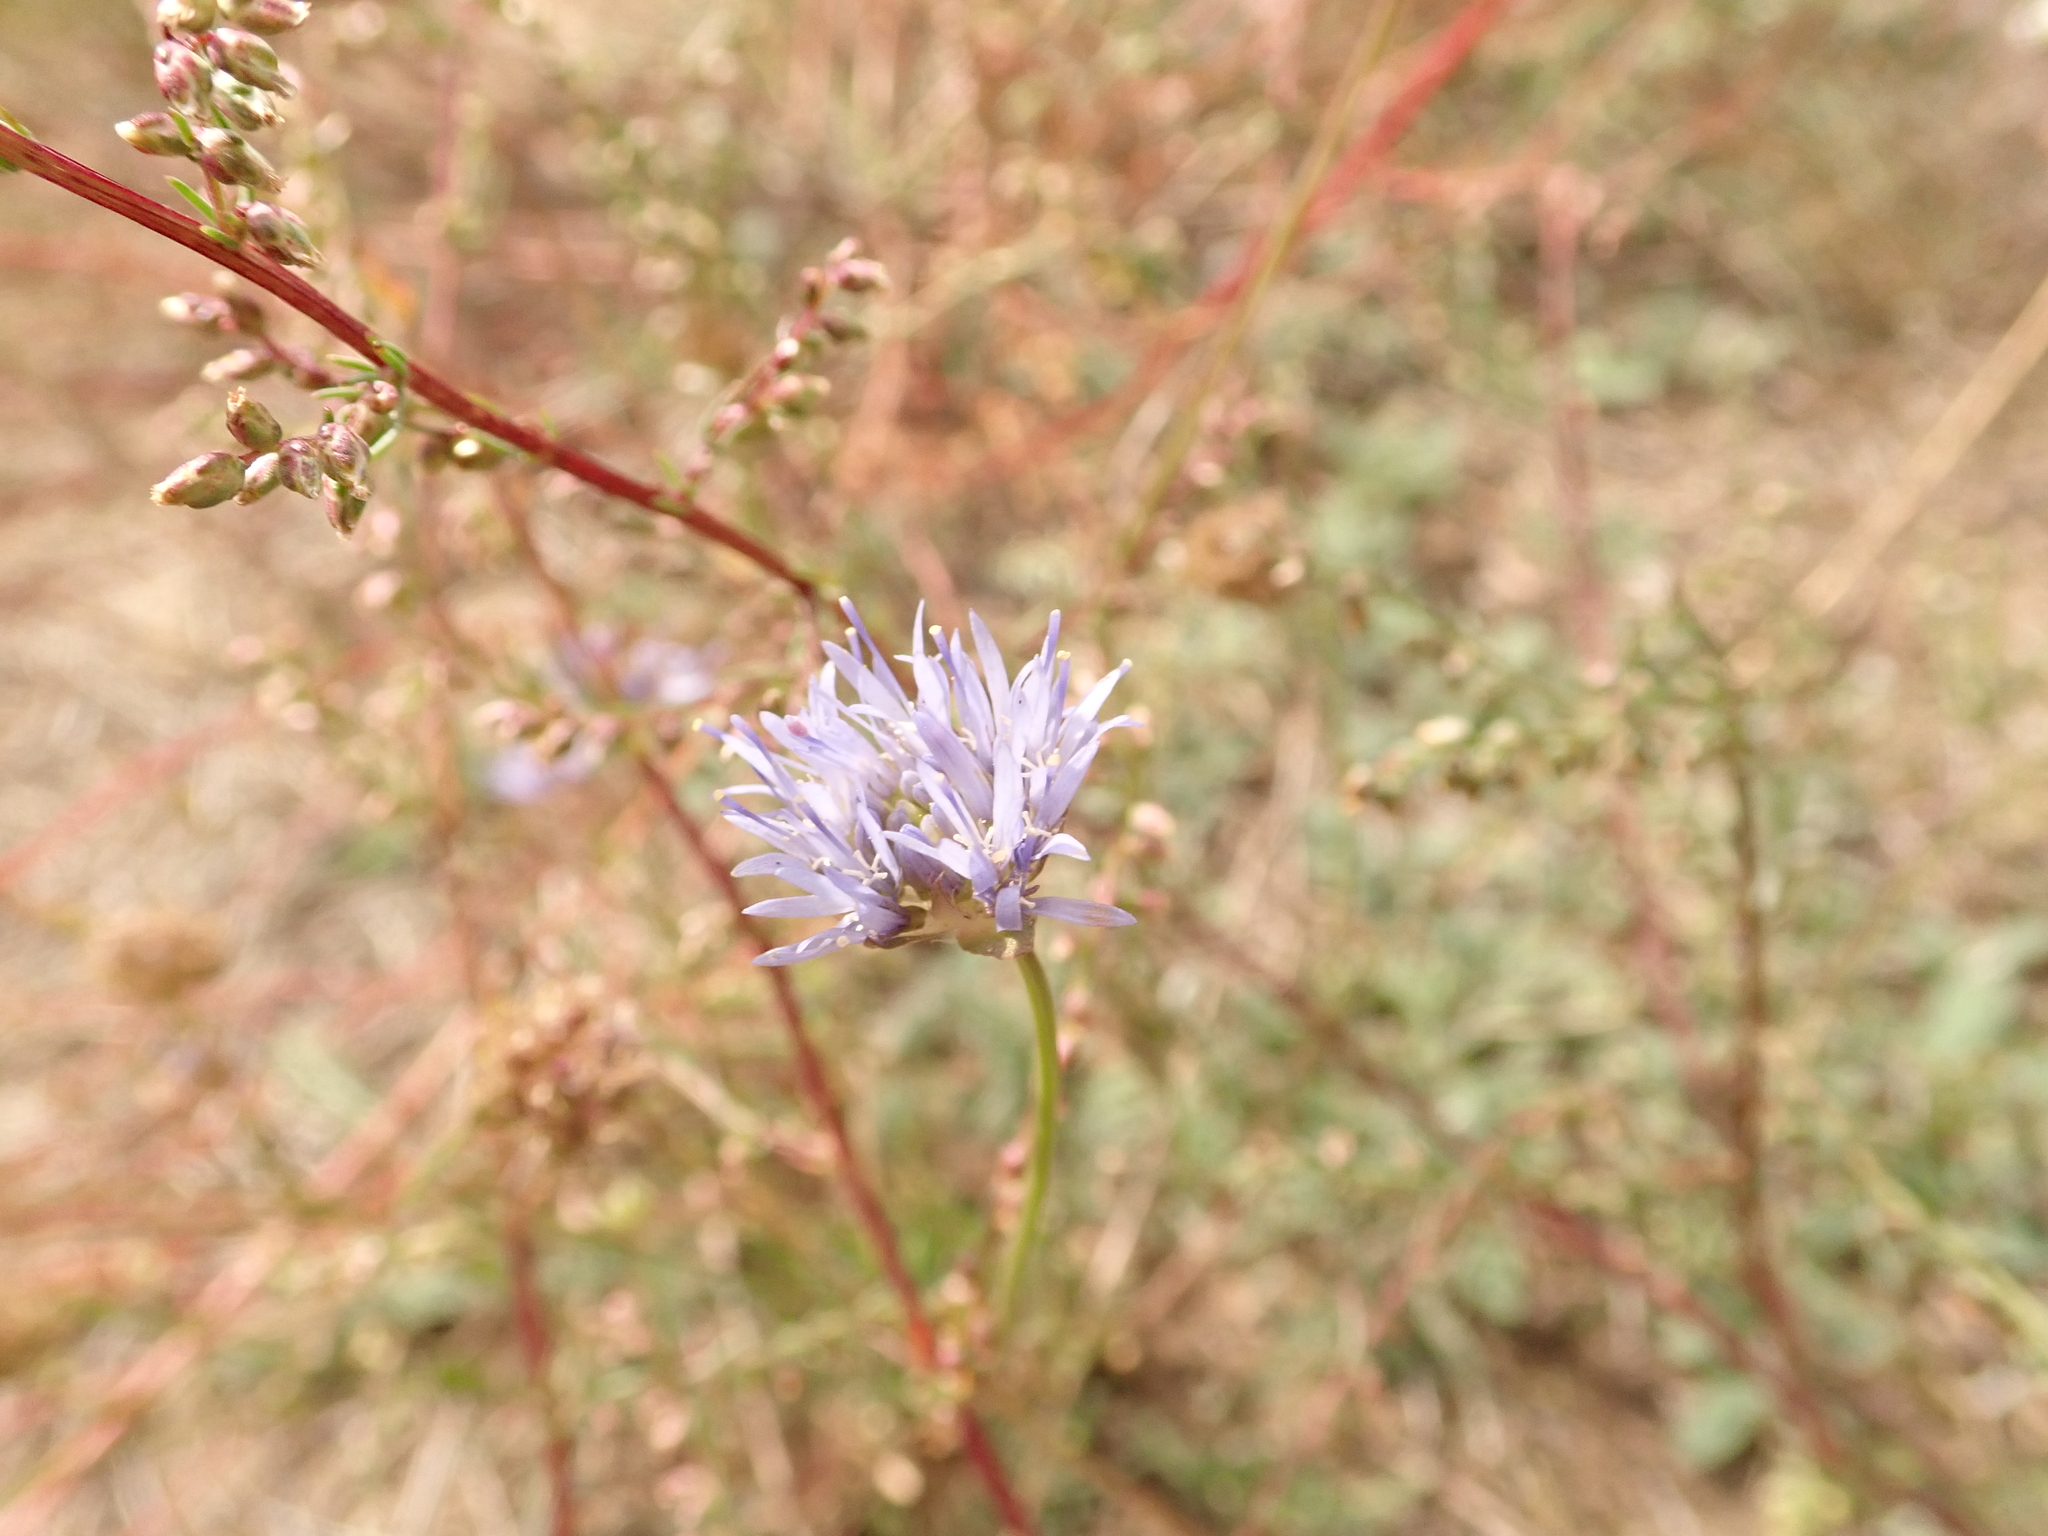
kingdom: Plantae
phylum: Tracheophyta
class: Magnoliopsida
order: Asterales
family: Campanulaceae
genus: Jasione
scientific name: Jasione montana
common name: Sheep's-bit
